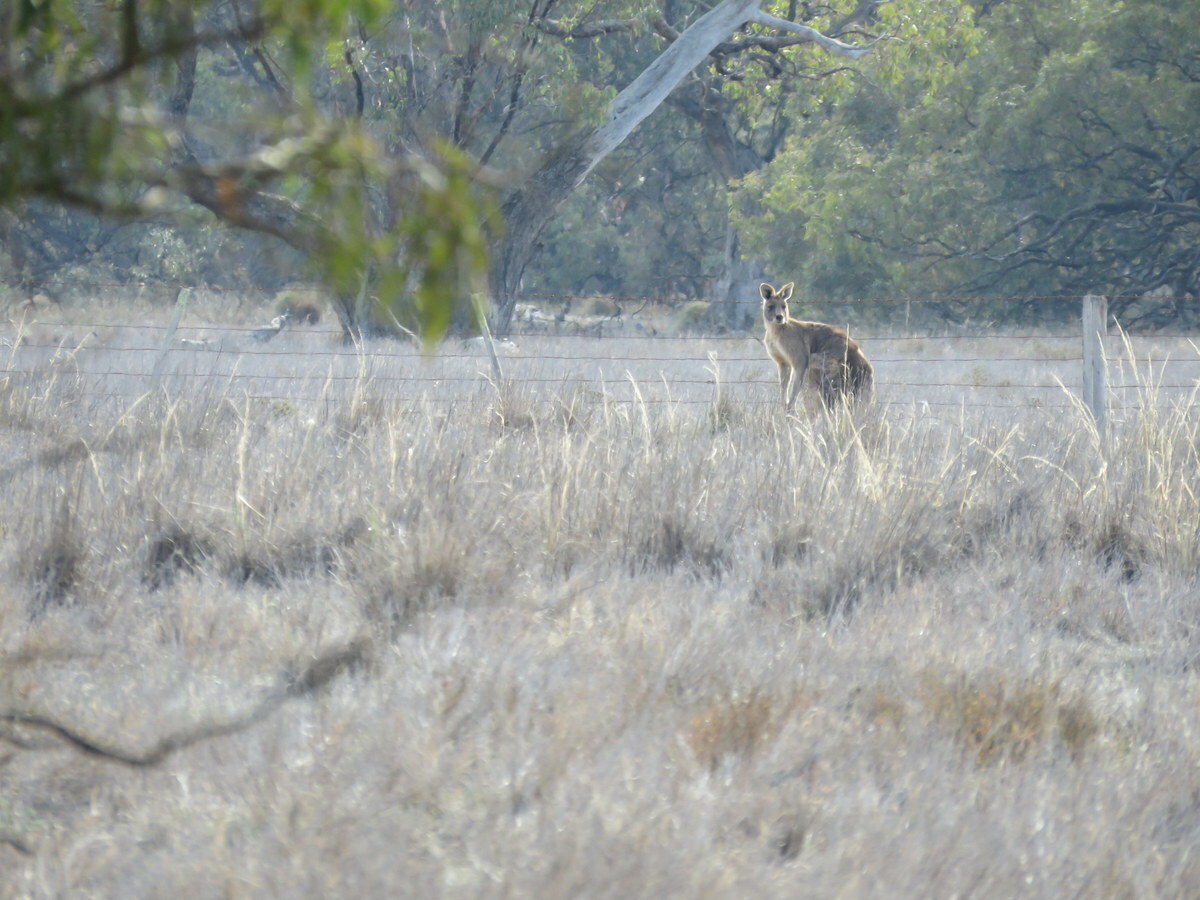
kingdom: Animalia
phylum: Chordata
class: Mammalia
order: Diprotodontia
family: Macropodidae
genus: Macropus
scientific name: Macropus giganteus
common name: Eastern grey kangaroo
